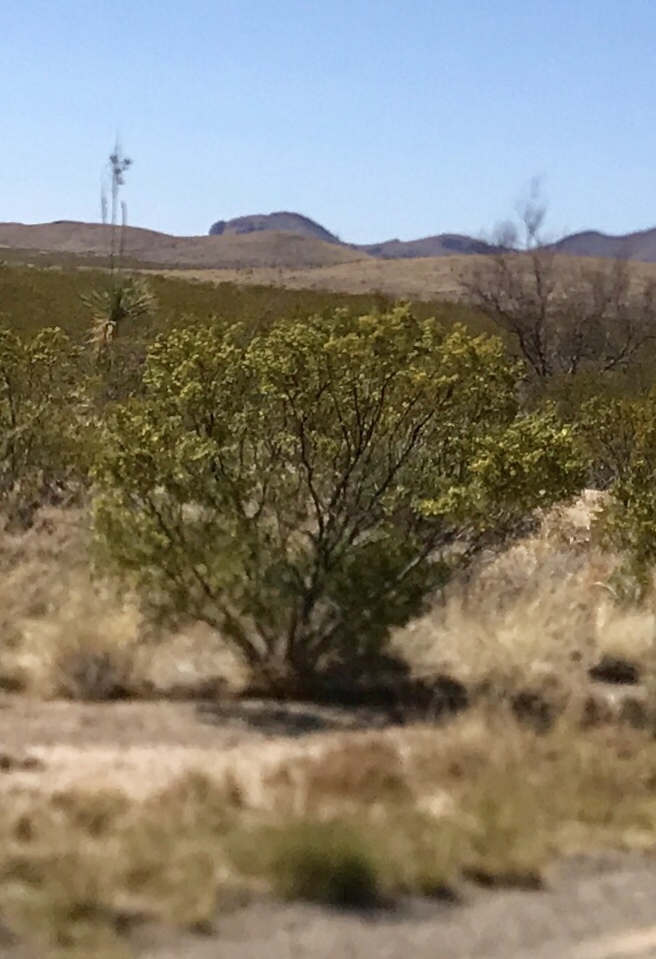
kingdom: Plantae
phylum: Tracheophyta
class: Magnoliopsida
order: Zygophyllales
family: Zygophyllaceae
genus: Larrea
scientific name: Larrea tridentata
